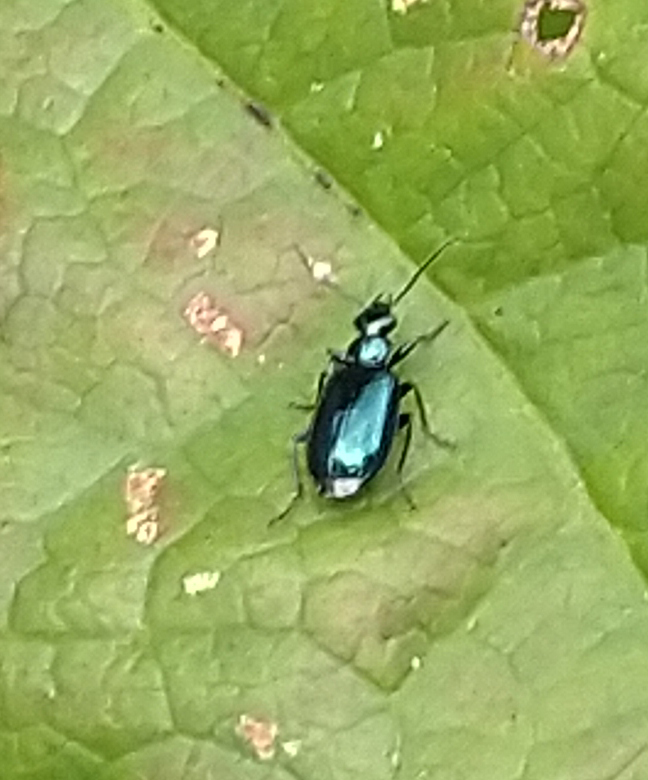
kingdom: Animalia
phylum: Arthropoda
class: Insecta
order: Coleoptera
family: Carabidae
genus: Lebia
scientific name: Lebia viridis
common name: Flower lebia beetle
